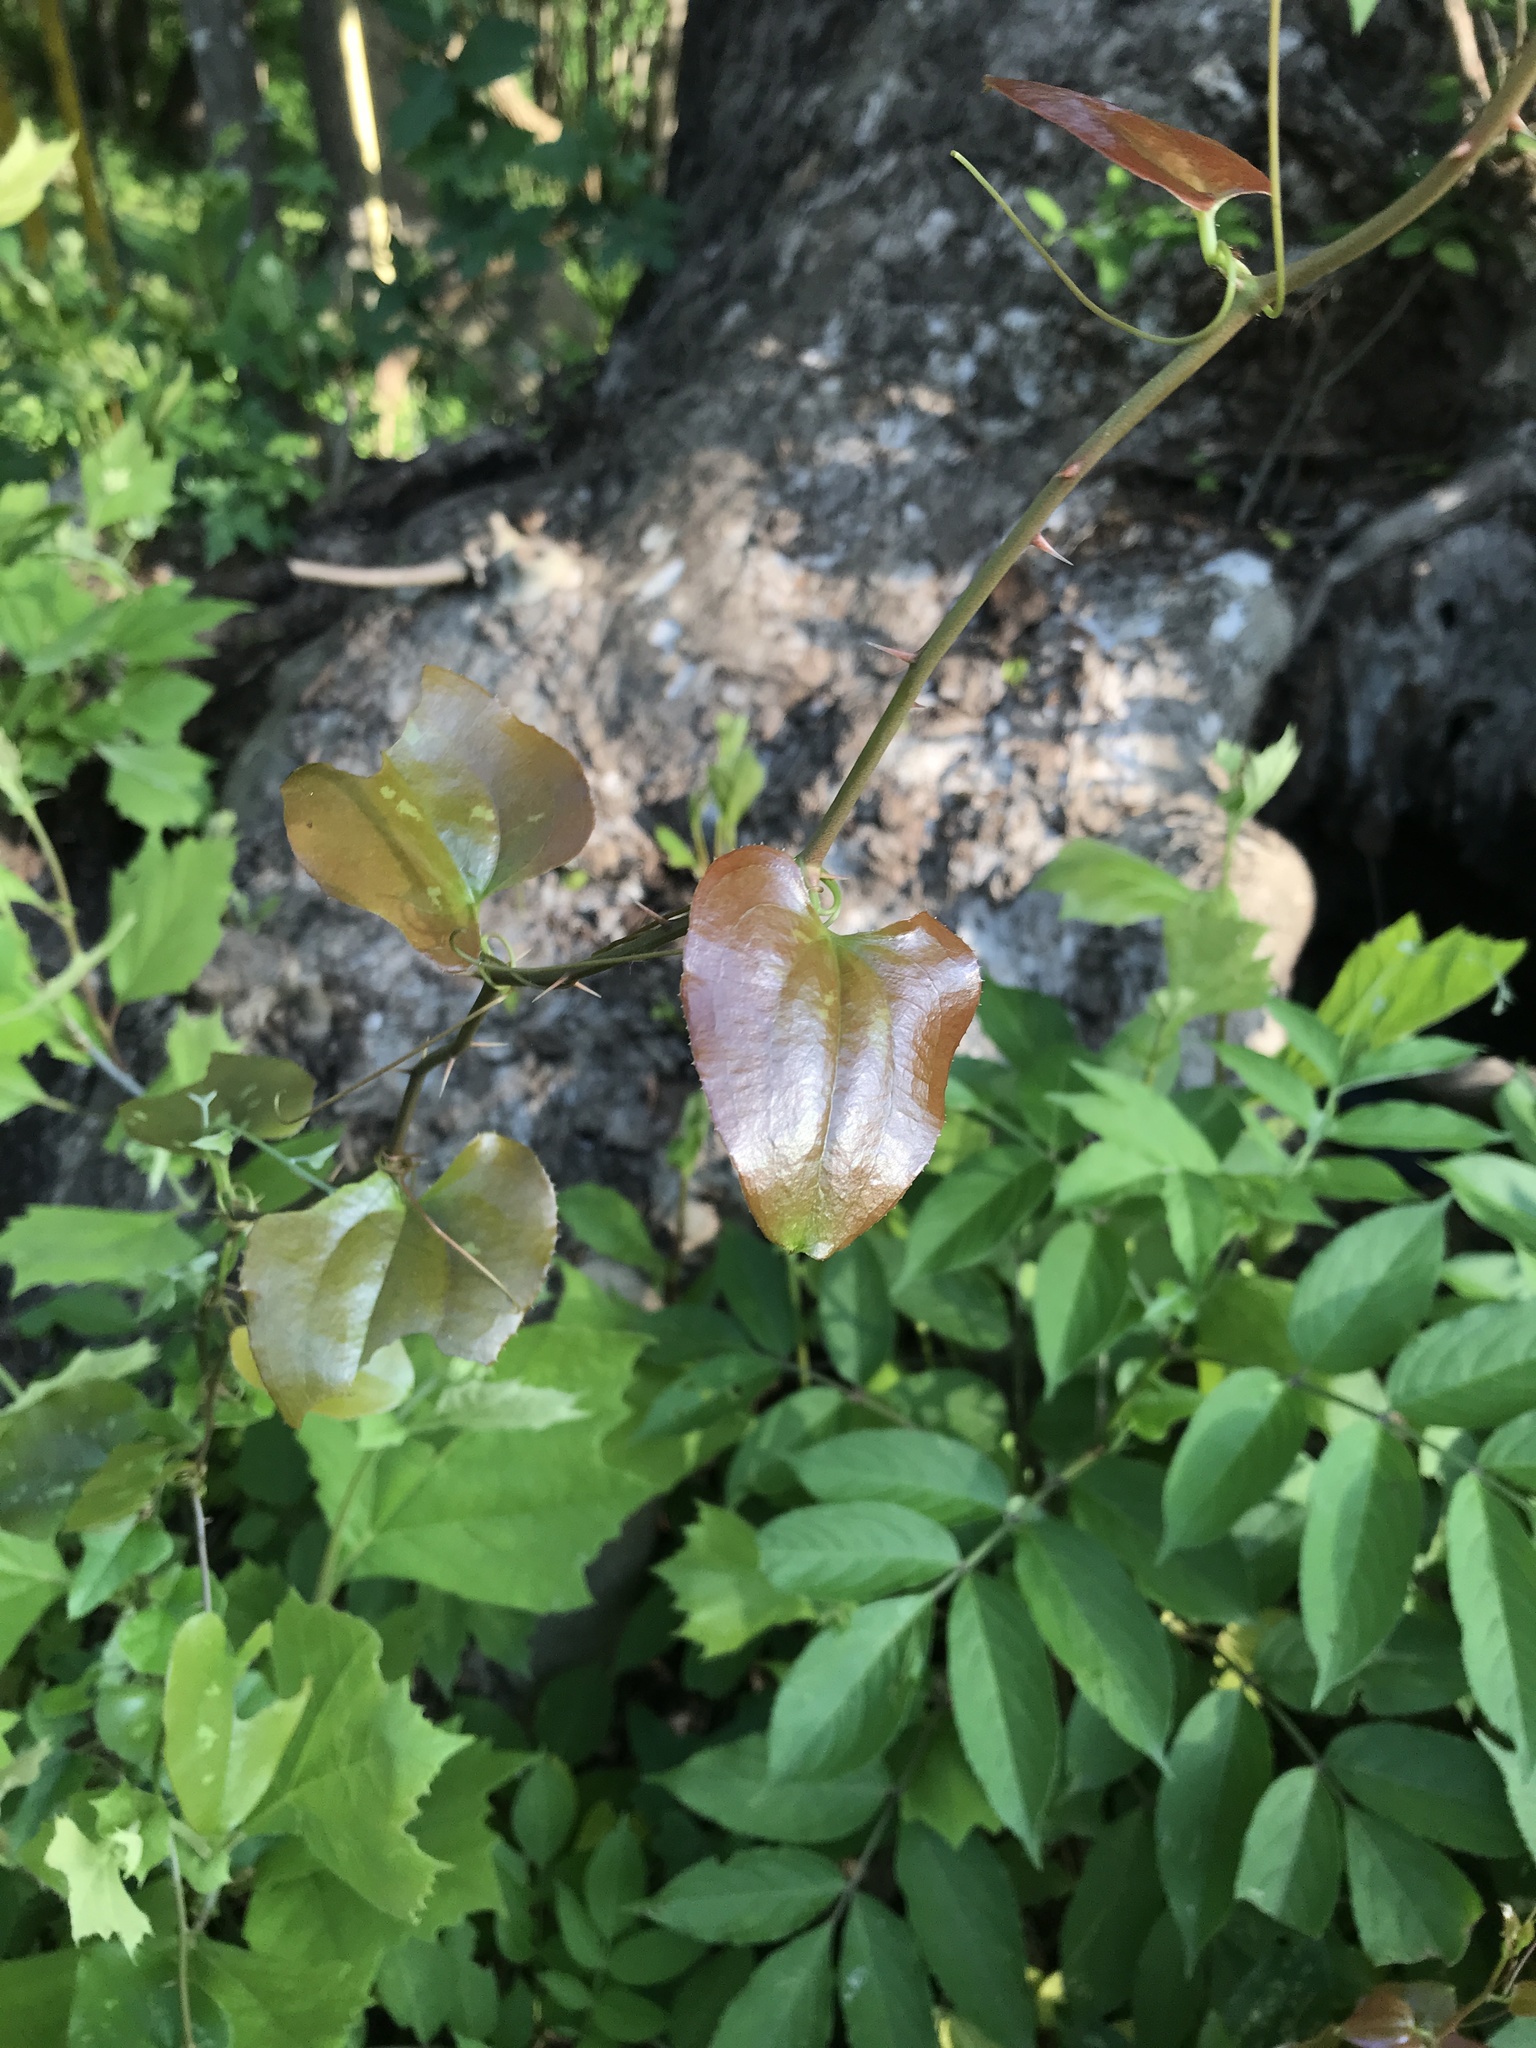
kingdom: Plantae
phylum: Tracheophyta
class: Liliopsida
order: Liliales
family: Smilacaceae
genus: Smilax
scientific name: Smilax rotundifolia
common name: Bullbriar
